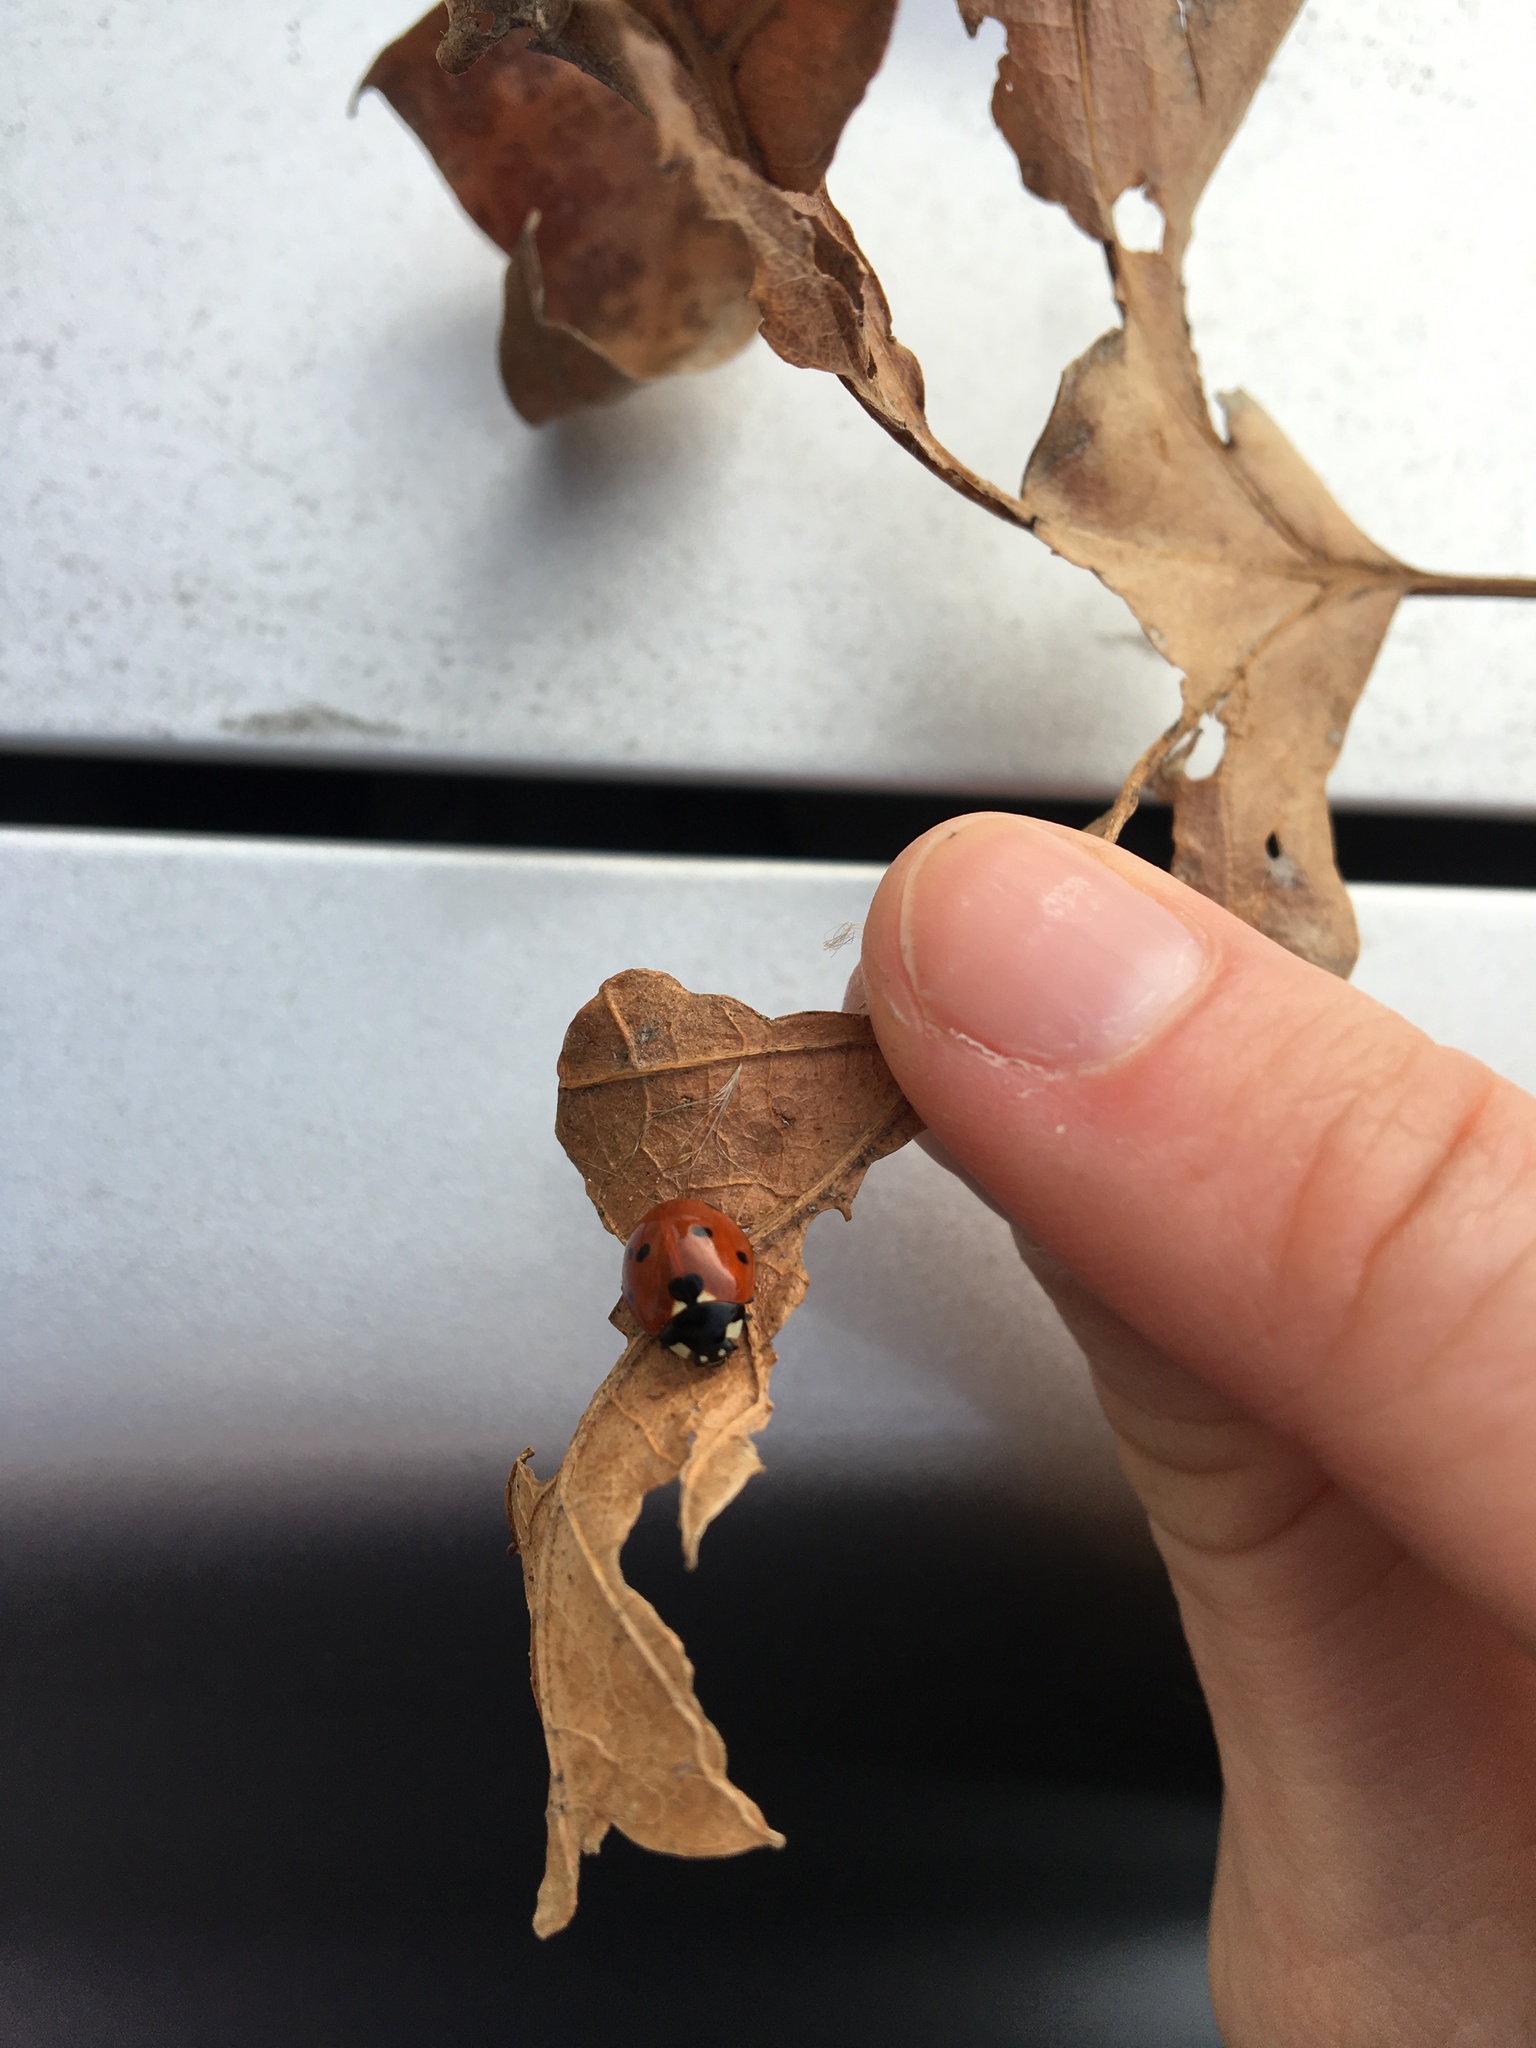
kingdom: Animalia
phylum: Arthropoda
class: Insecta
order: Coleoptera
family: Coccinellidae
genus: Coccinella
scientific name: Coccinella septempunctata
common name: Sevenspotted lady beetle
